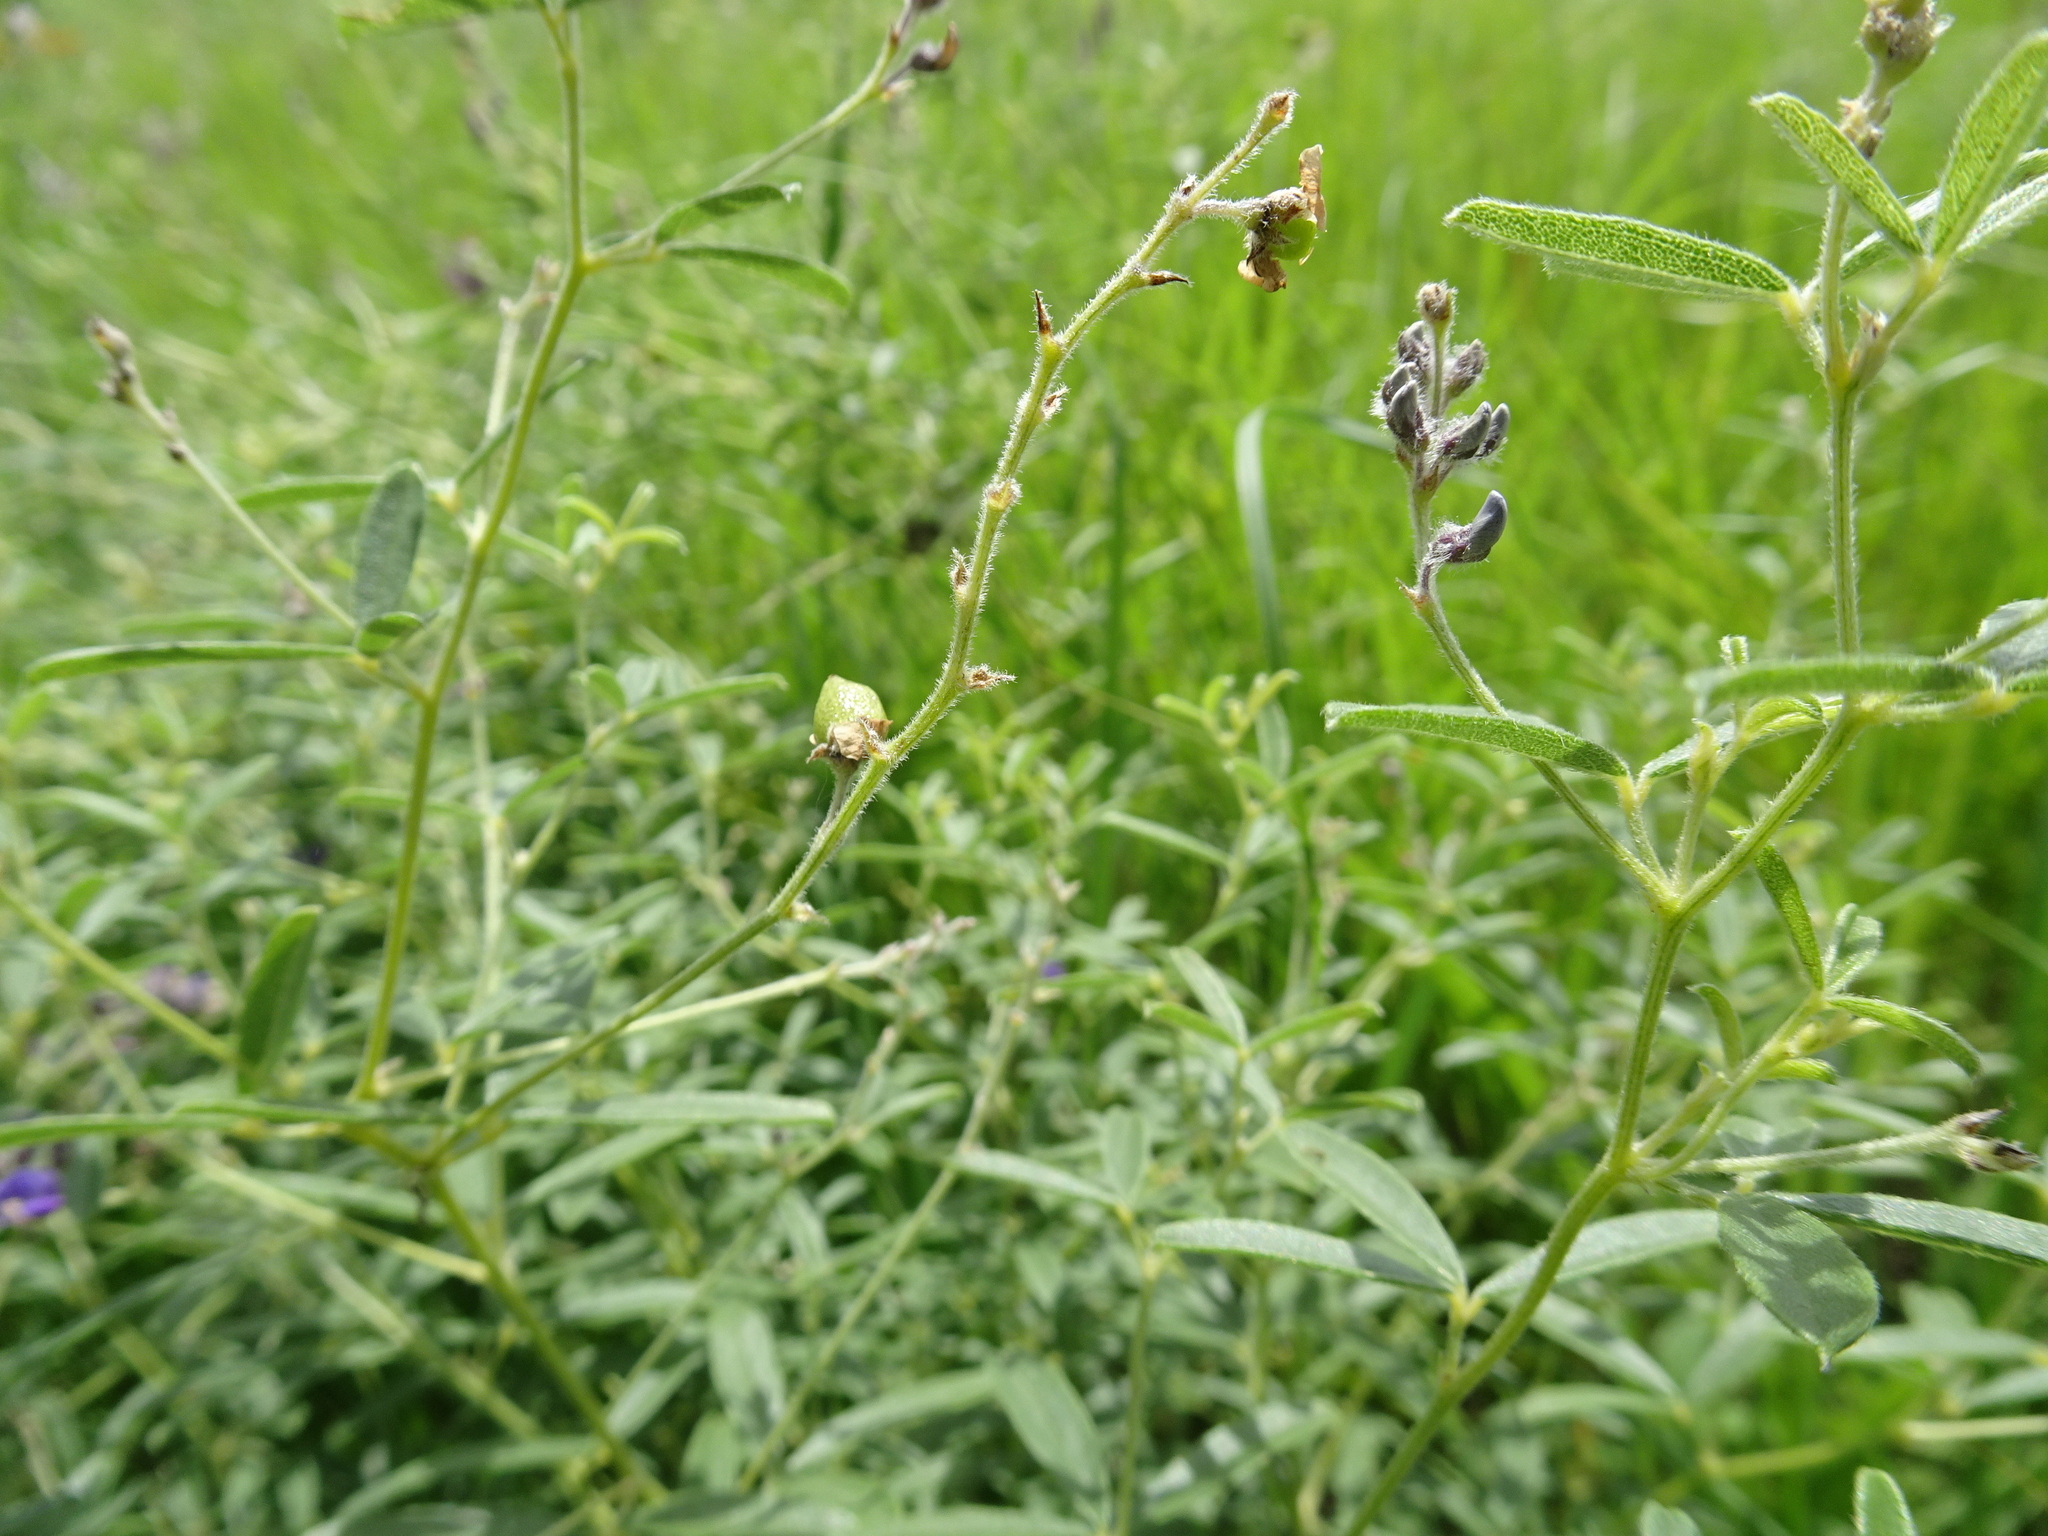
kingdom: Plantae
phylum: Tracheophyta
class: Magnoliopsida
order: Fabales
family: Fabaceae
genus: Pediomelum
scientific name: Pediomelum tenuiflorum
